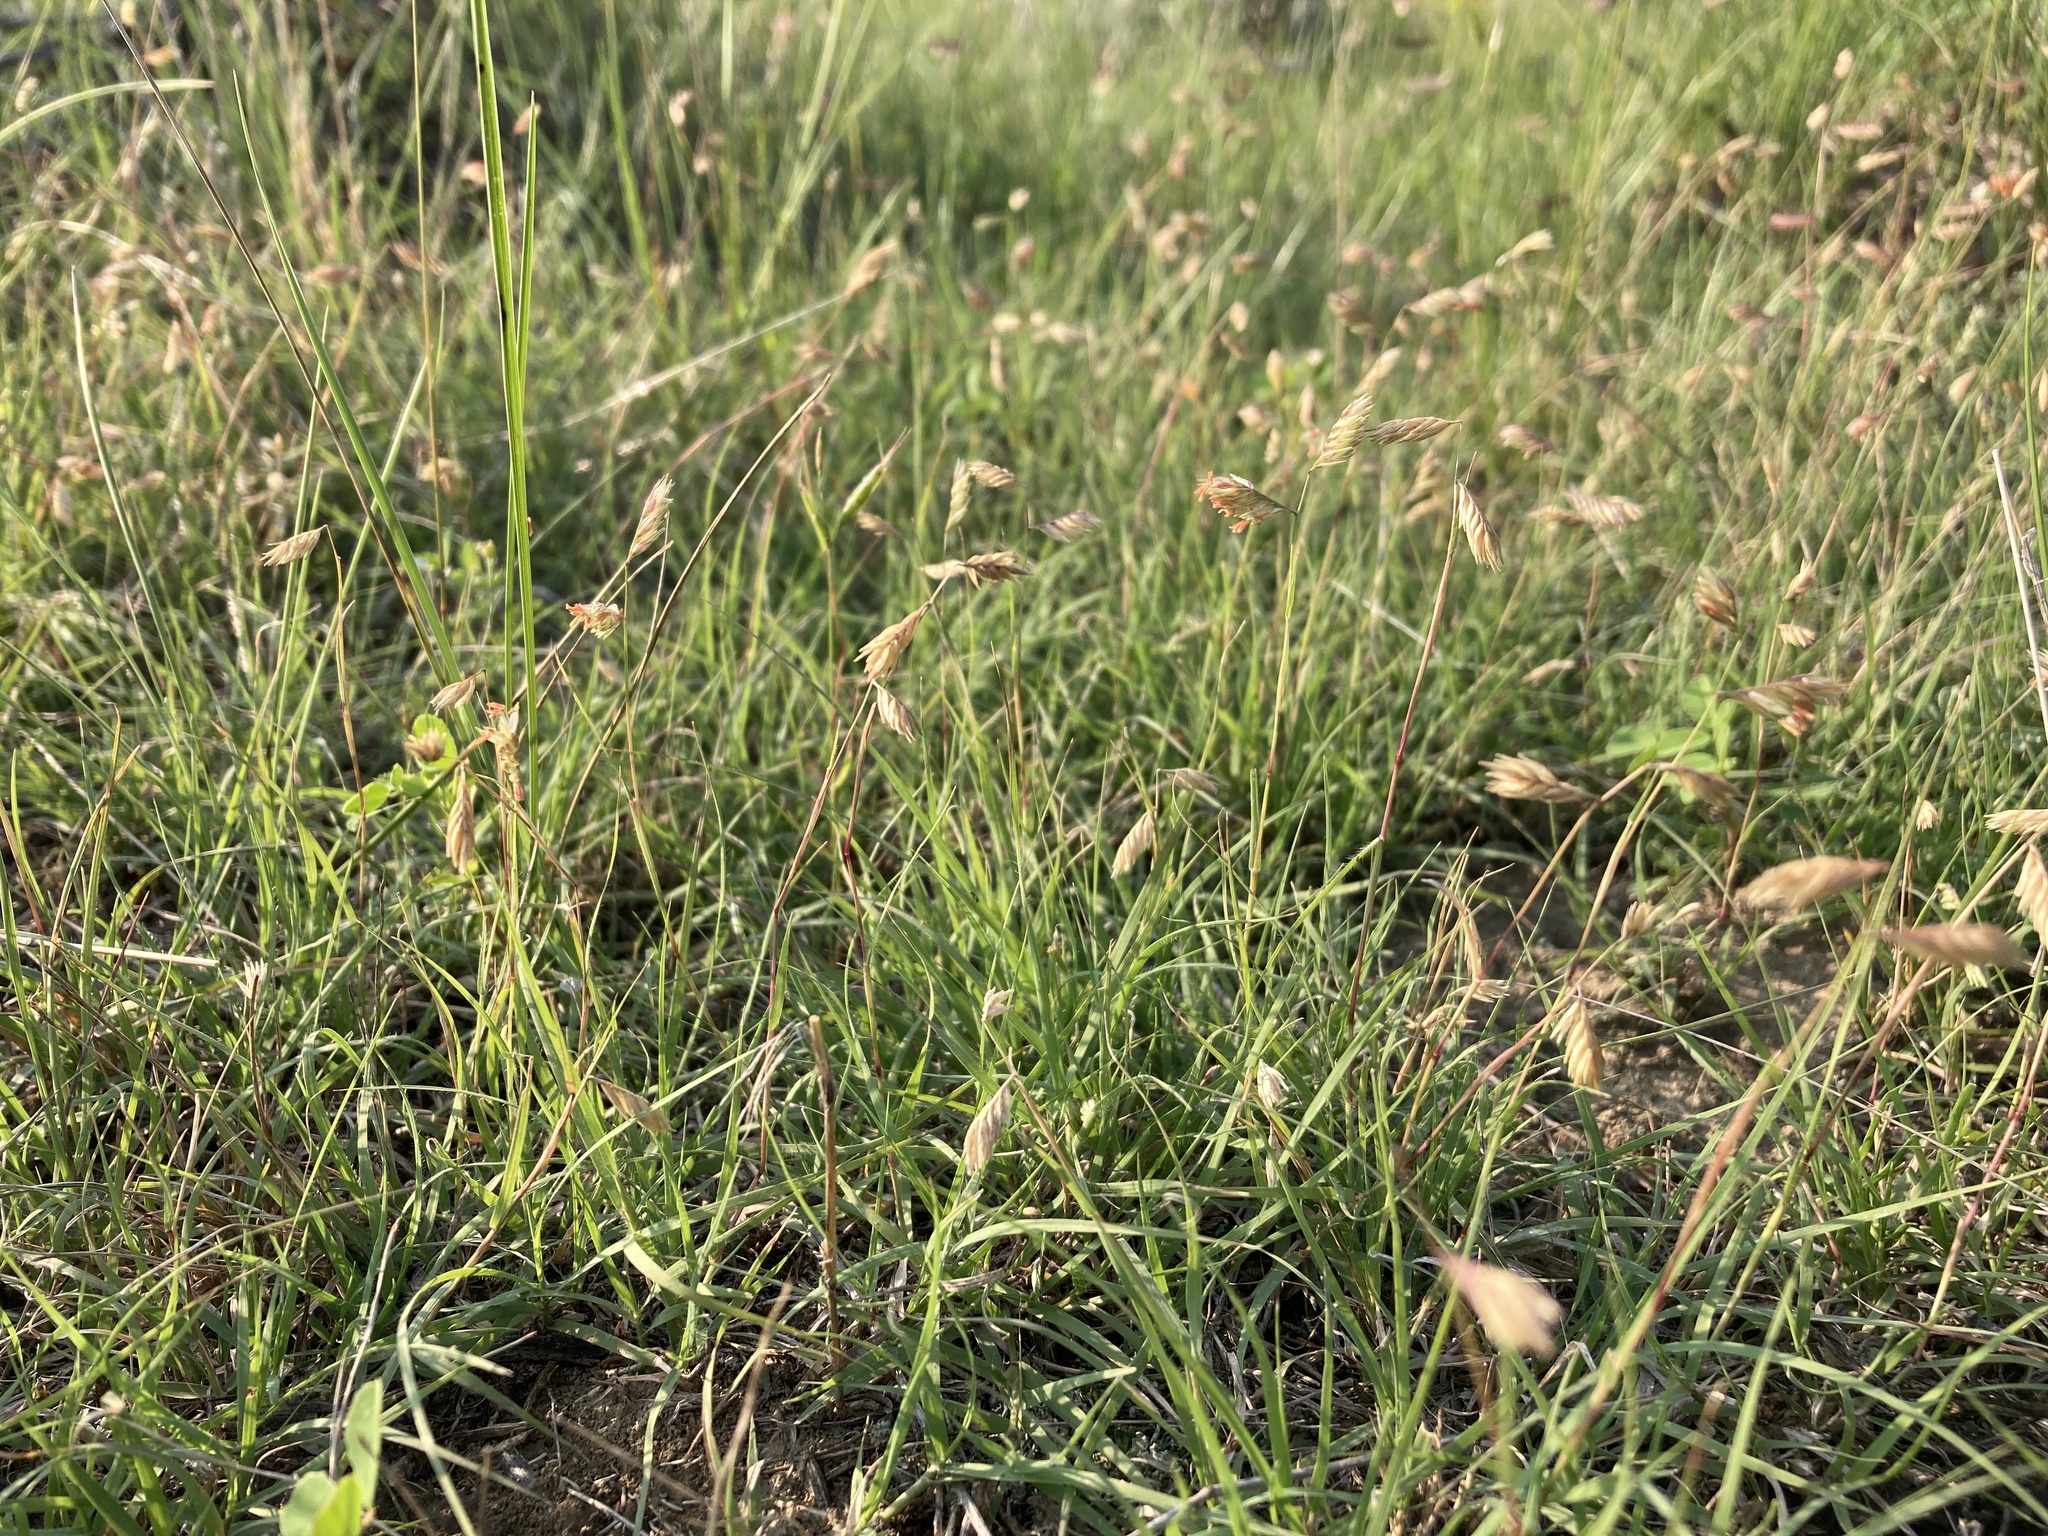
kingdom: Plantae
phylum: Tracheophyta
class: Liliopsida
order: Poales
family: Poaceae
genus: Bouteloua
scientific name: Bouteloua dactyloides
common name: Buffalo grass
